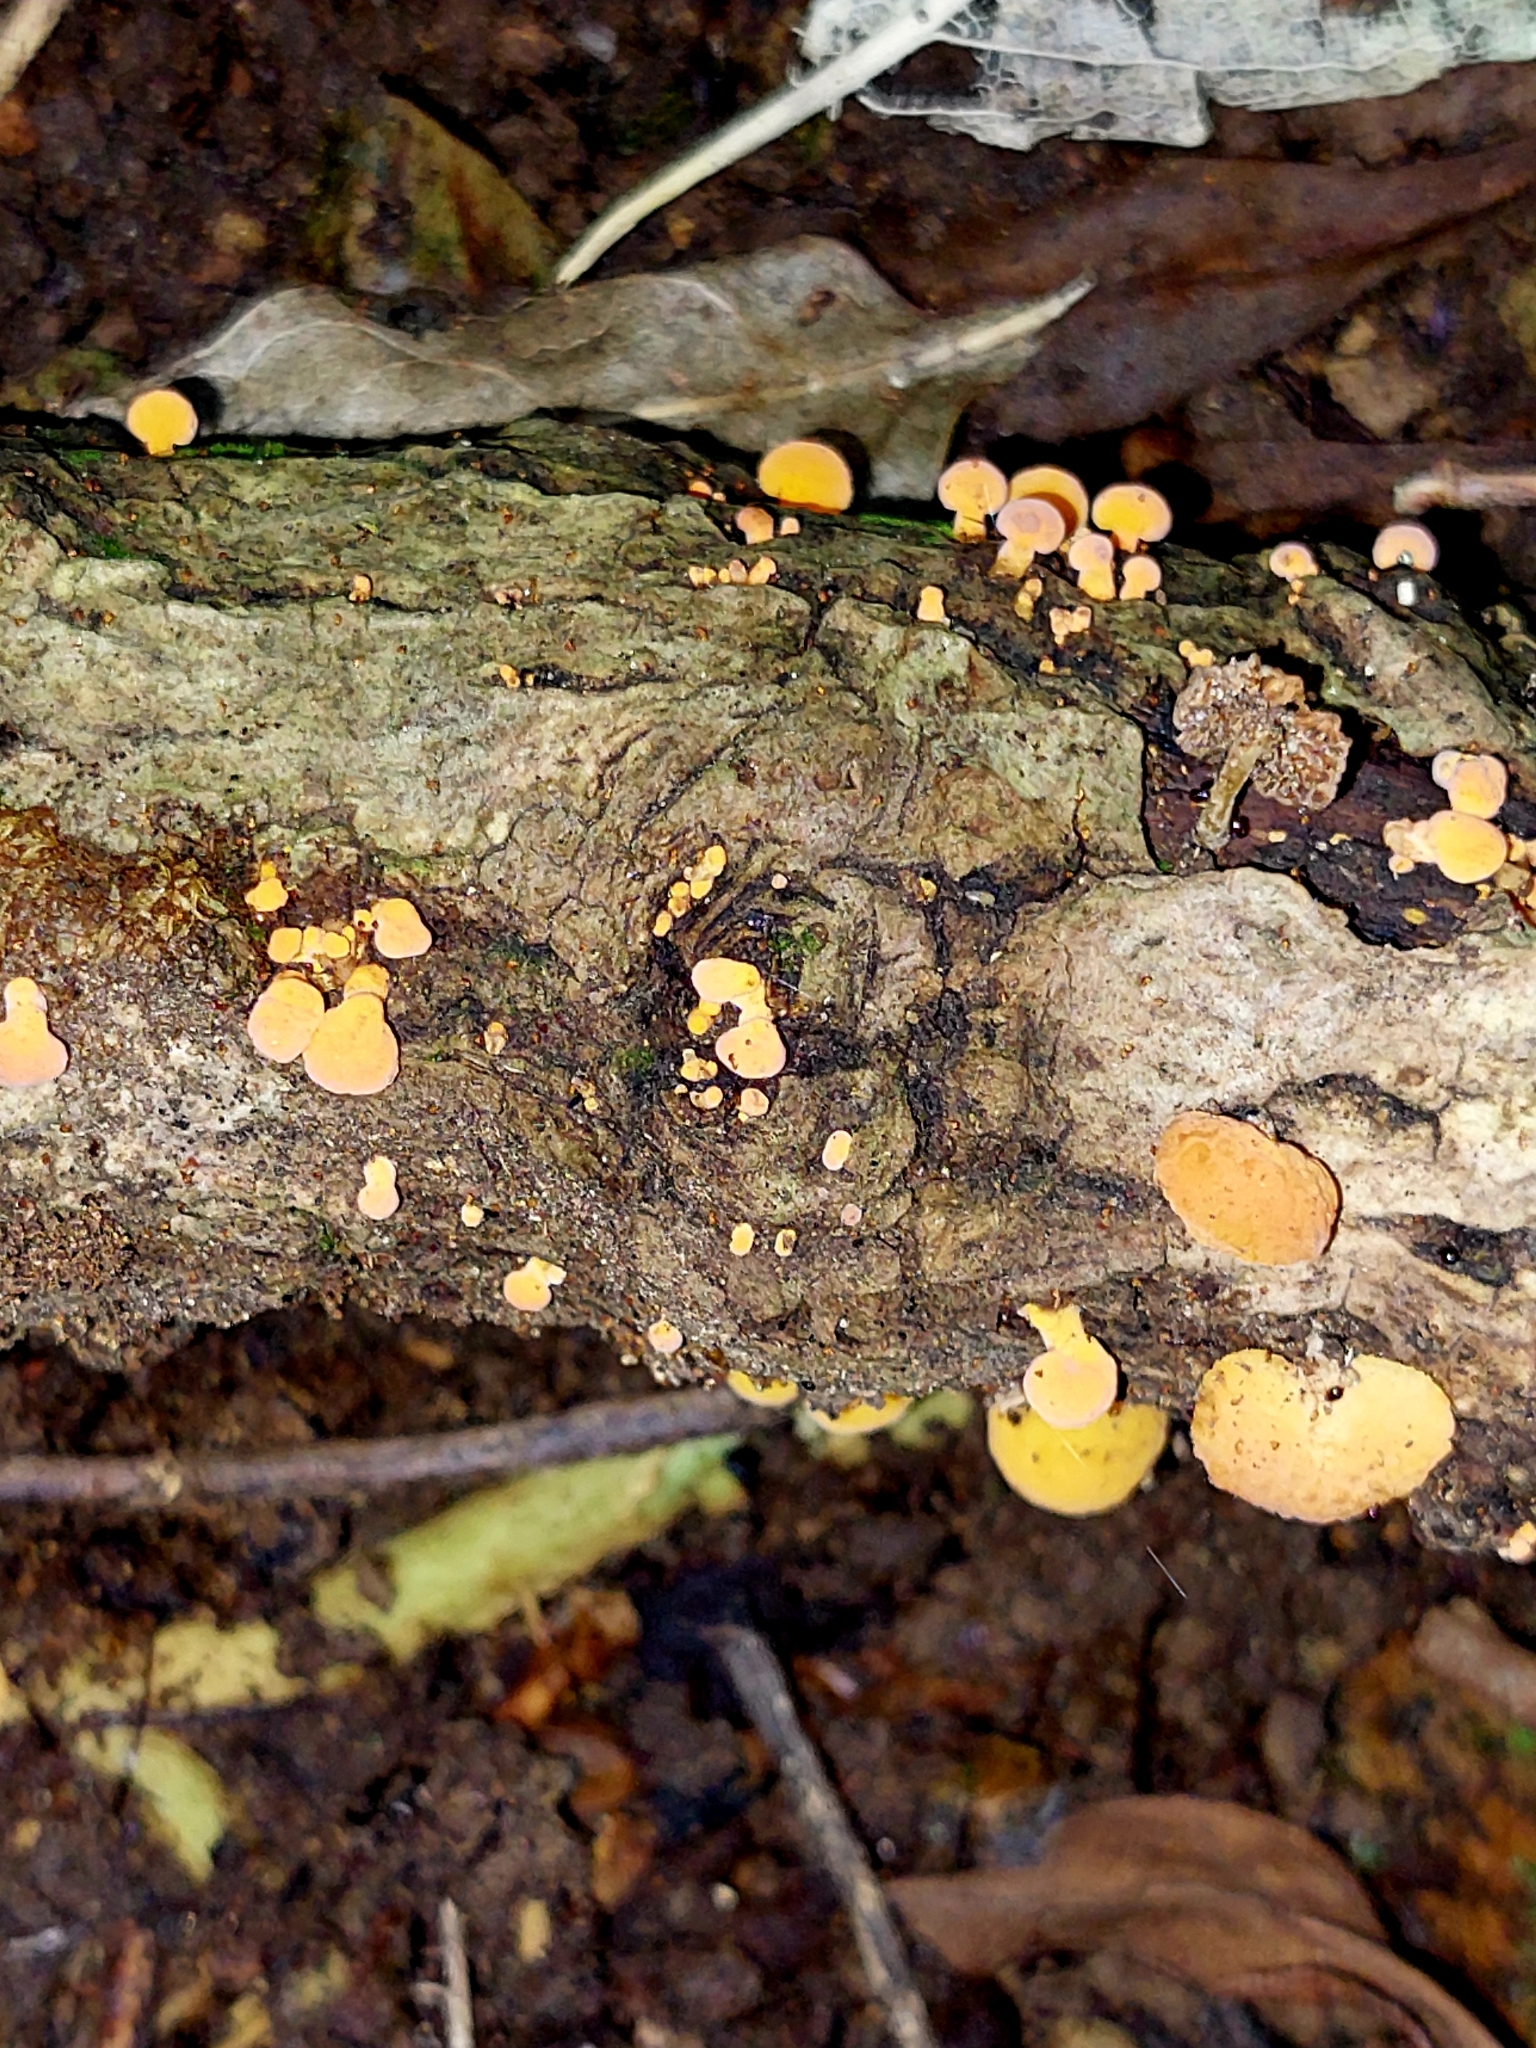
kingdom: Fungi
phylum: Basidiomycota
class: Agaricomycetes
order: Agaricales
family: Mycenaceae
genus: Favolaschia
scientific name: Favolaschia claudopus
